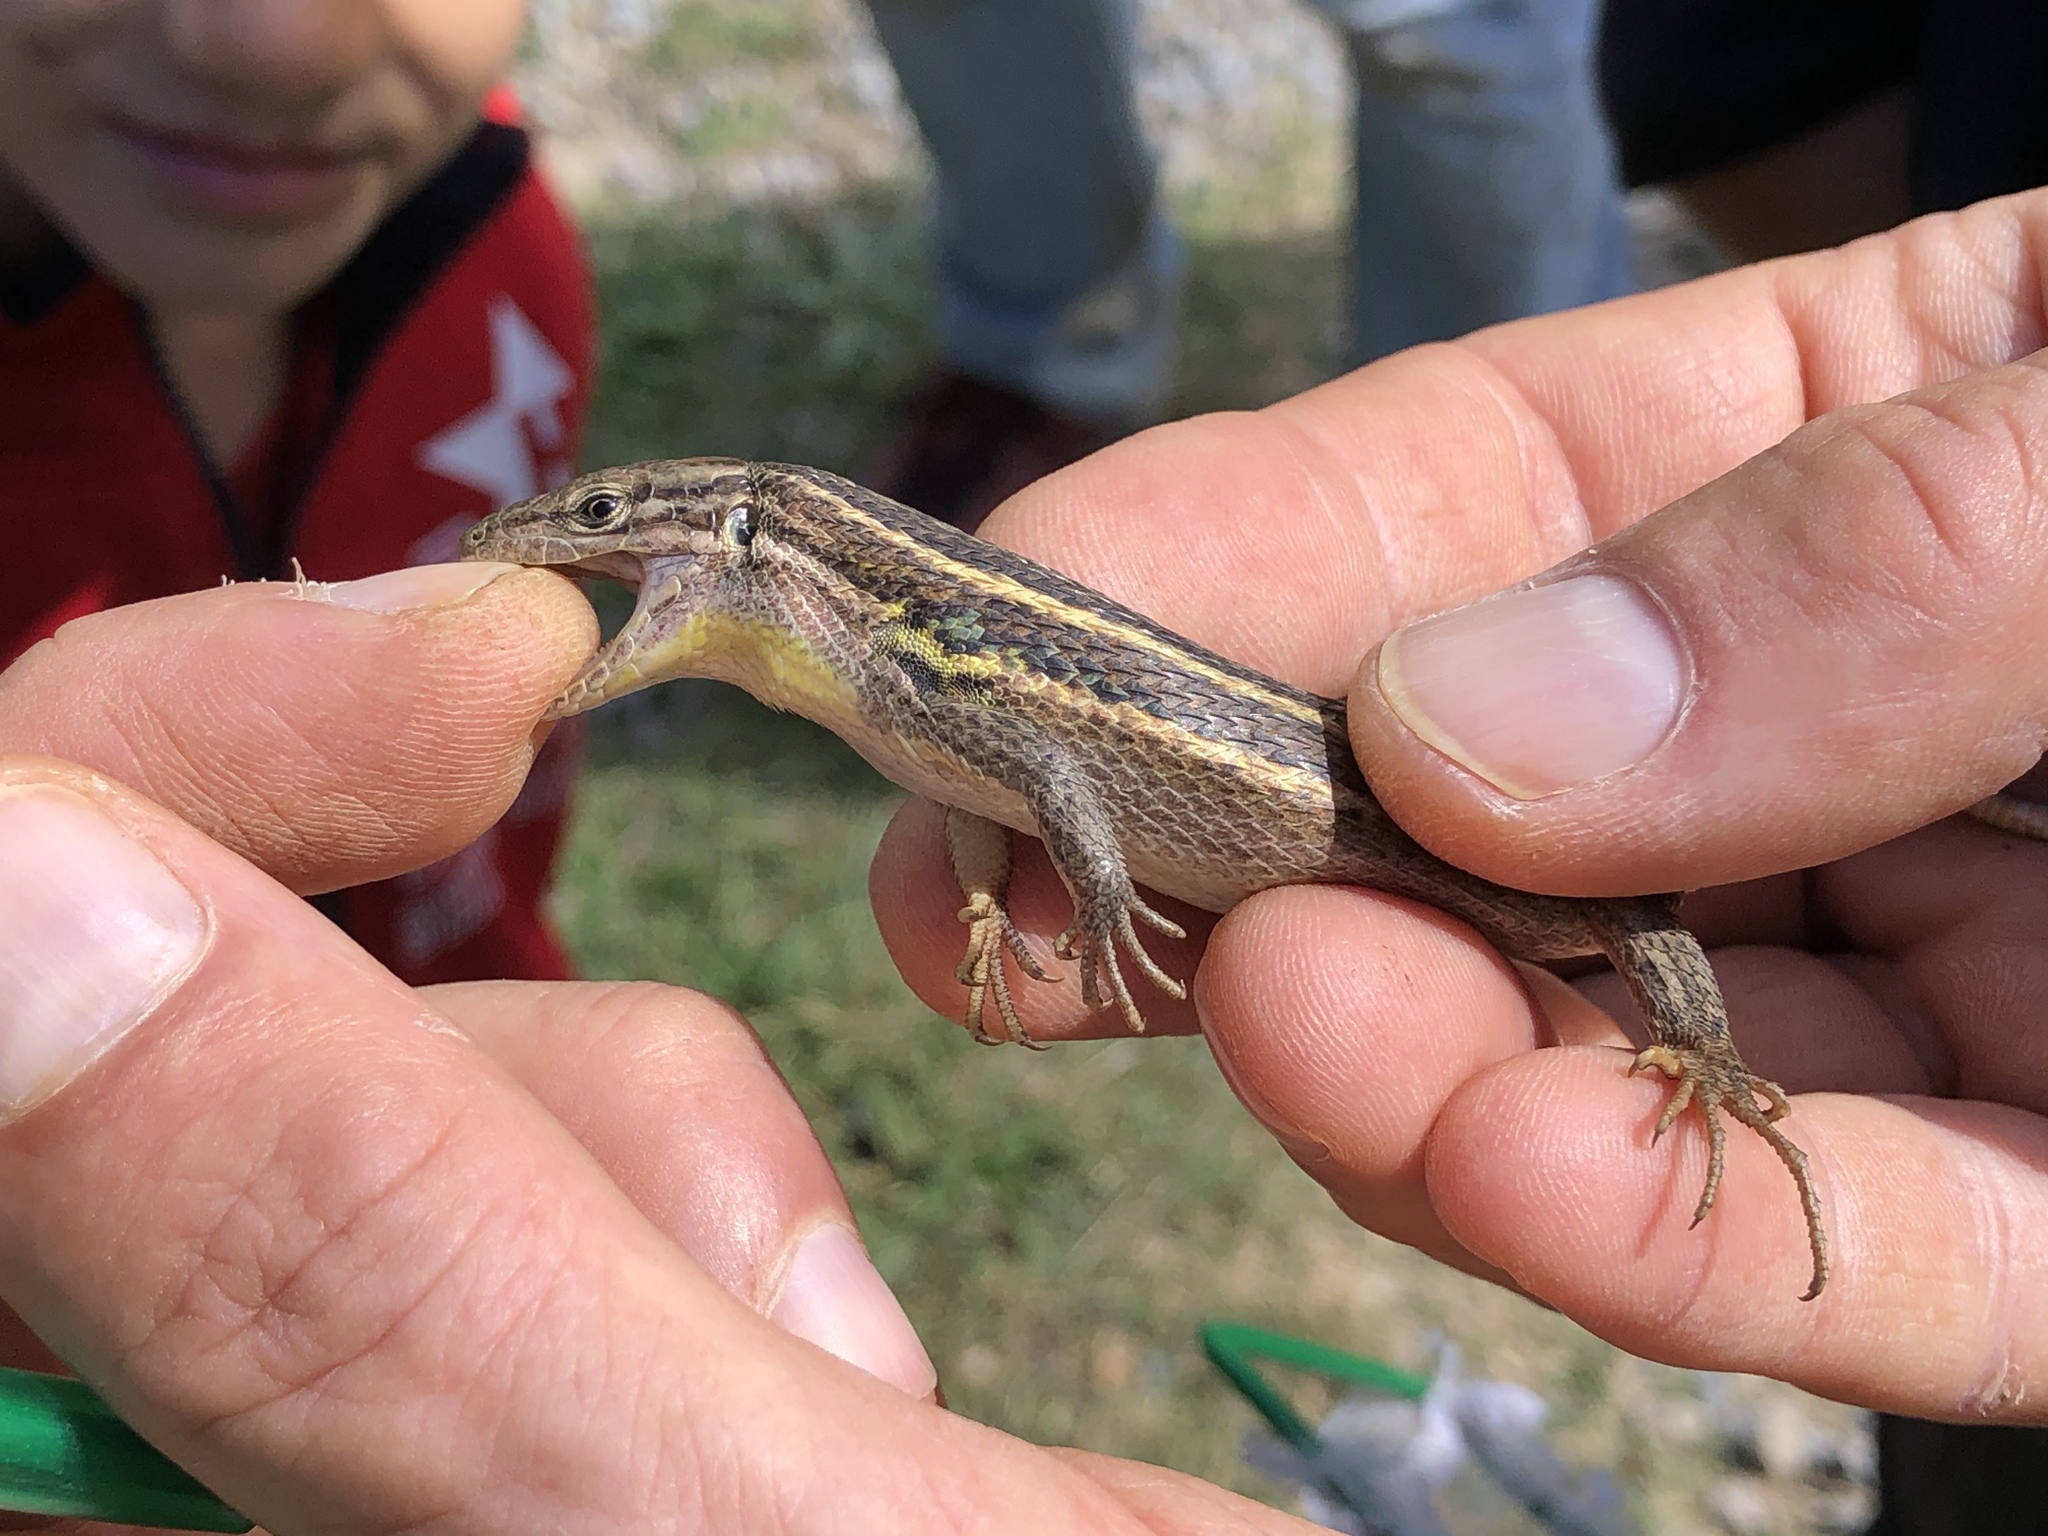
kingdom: Animalia
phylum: Chordata
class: Squamata
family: Lacertidae
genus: Psammodromus
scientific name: Psammodromus algirus
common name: Algerian psammodromus
